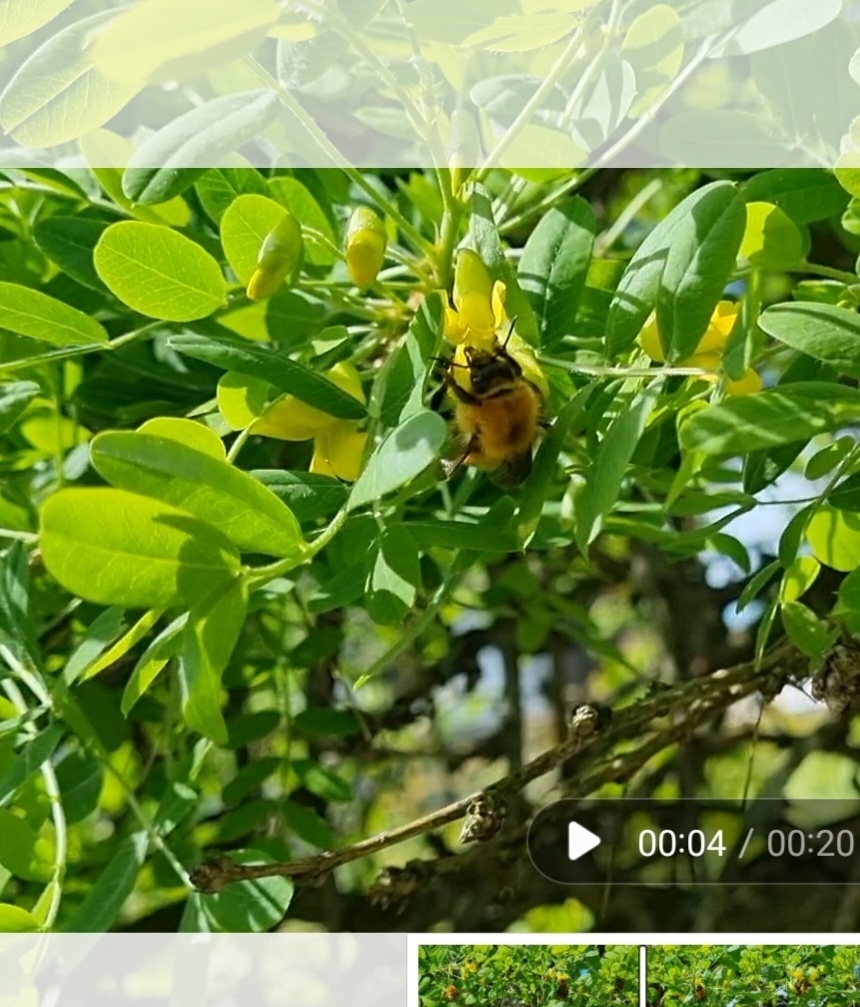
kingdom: Animalia
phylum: Arthropoda
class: Insecta
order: Hymenoptera
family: Apidae
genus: Bombus
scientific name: Bombus schrencki
